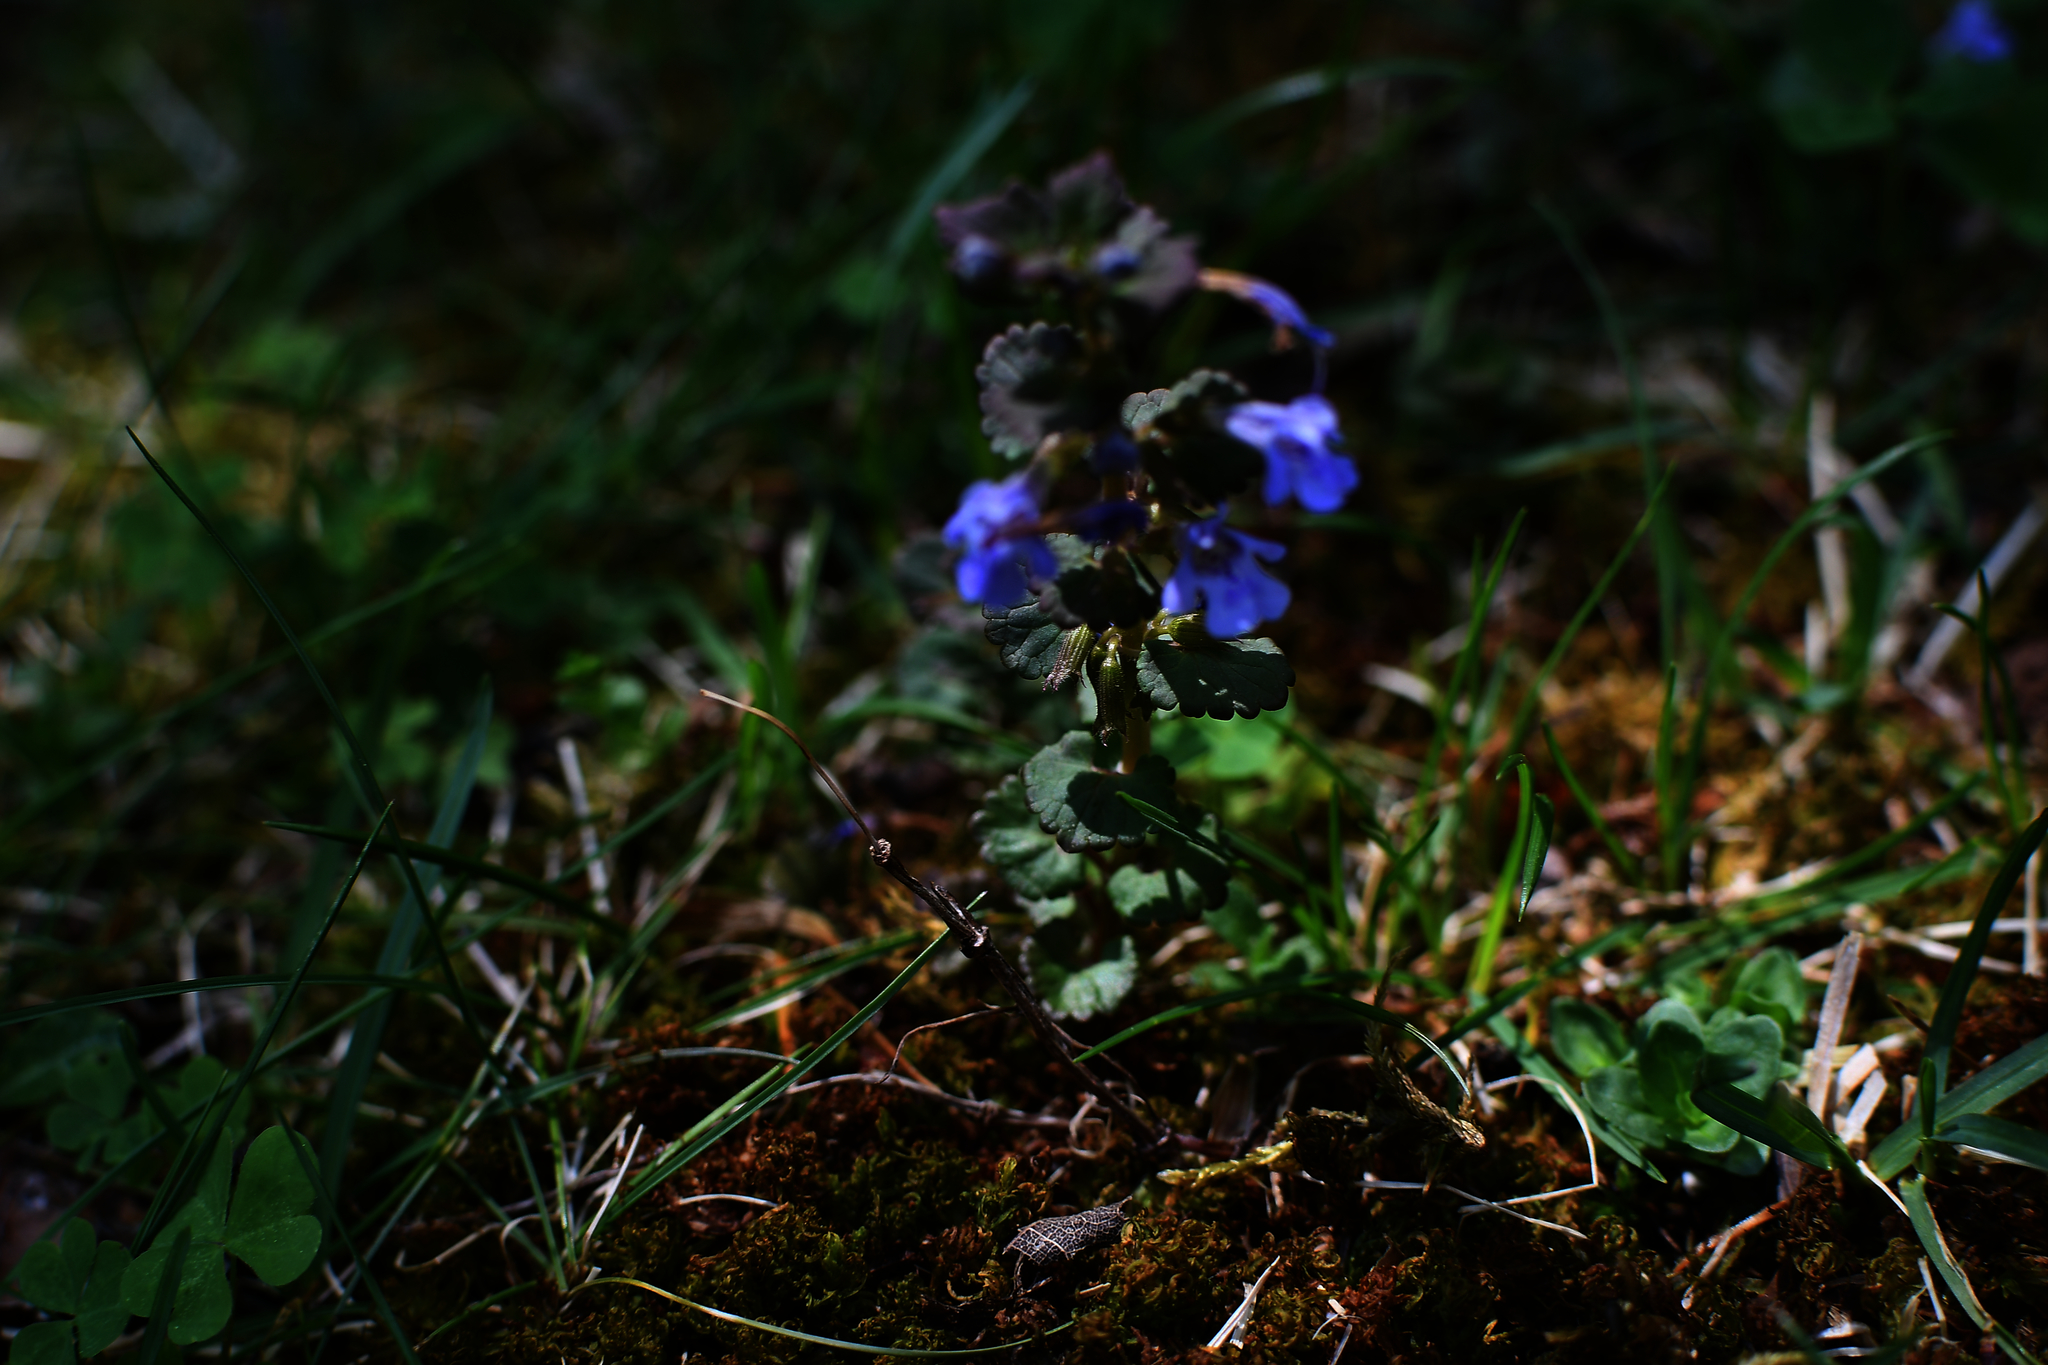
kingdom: Plantae
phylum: Tracheophyta
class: Magnoliopsida
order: Lamiales
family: Lamiaceae
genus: Glechoma
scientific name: Glechoma hederacea
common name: Ground ivy
